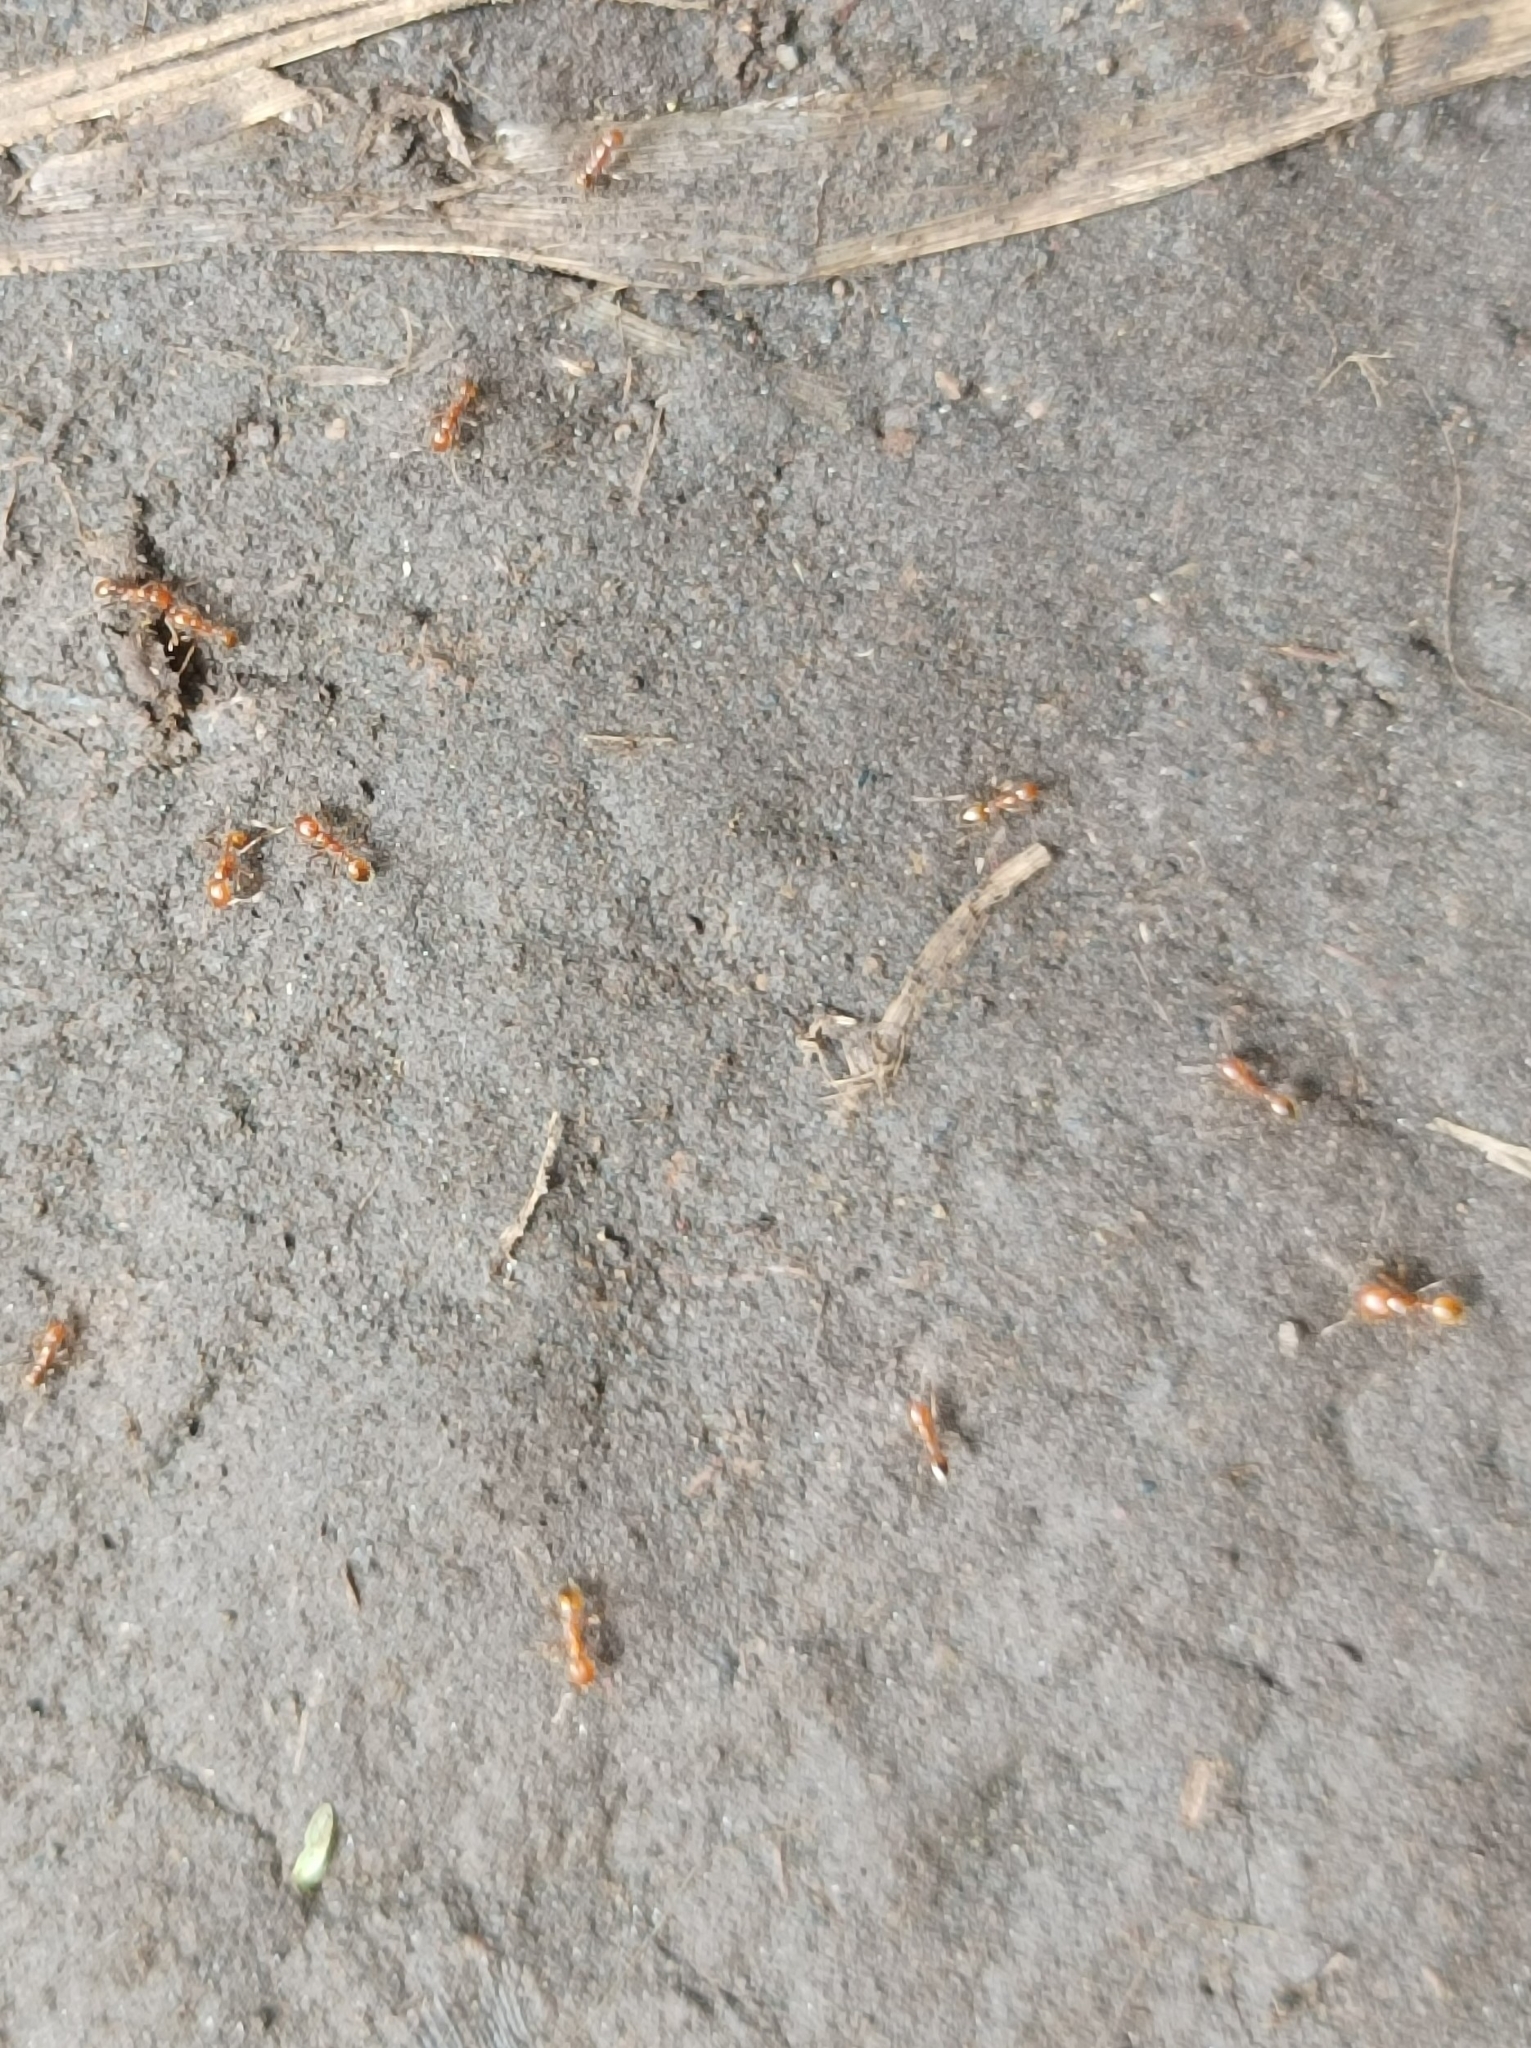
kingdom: Animalia
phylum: Arthropoda
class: Insecta
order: Hymenoptera
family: Formicidae
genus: Solenopsis
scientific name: Solenopsis geminata
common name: Tropical fire ant
